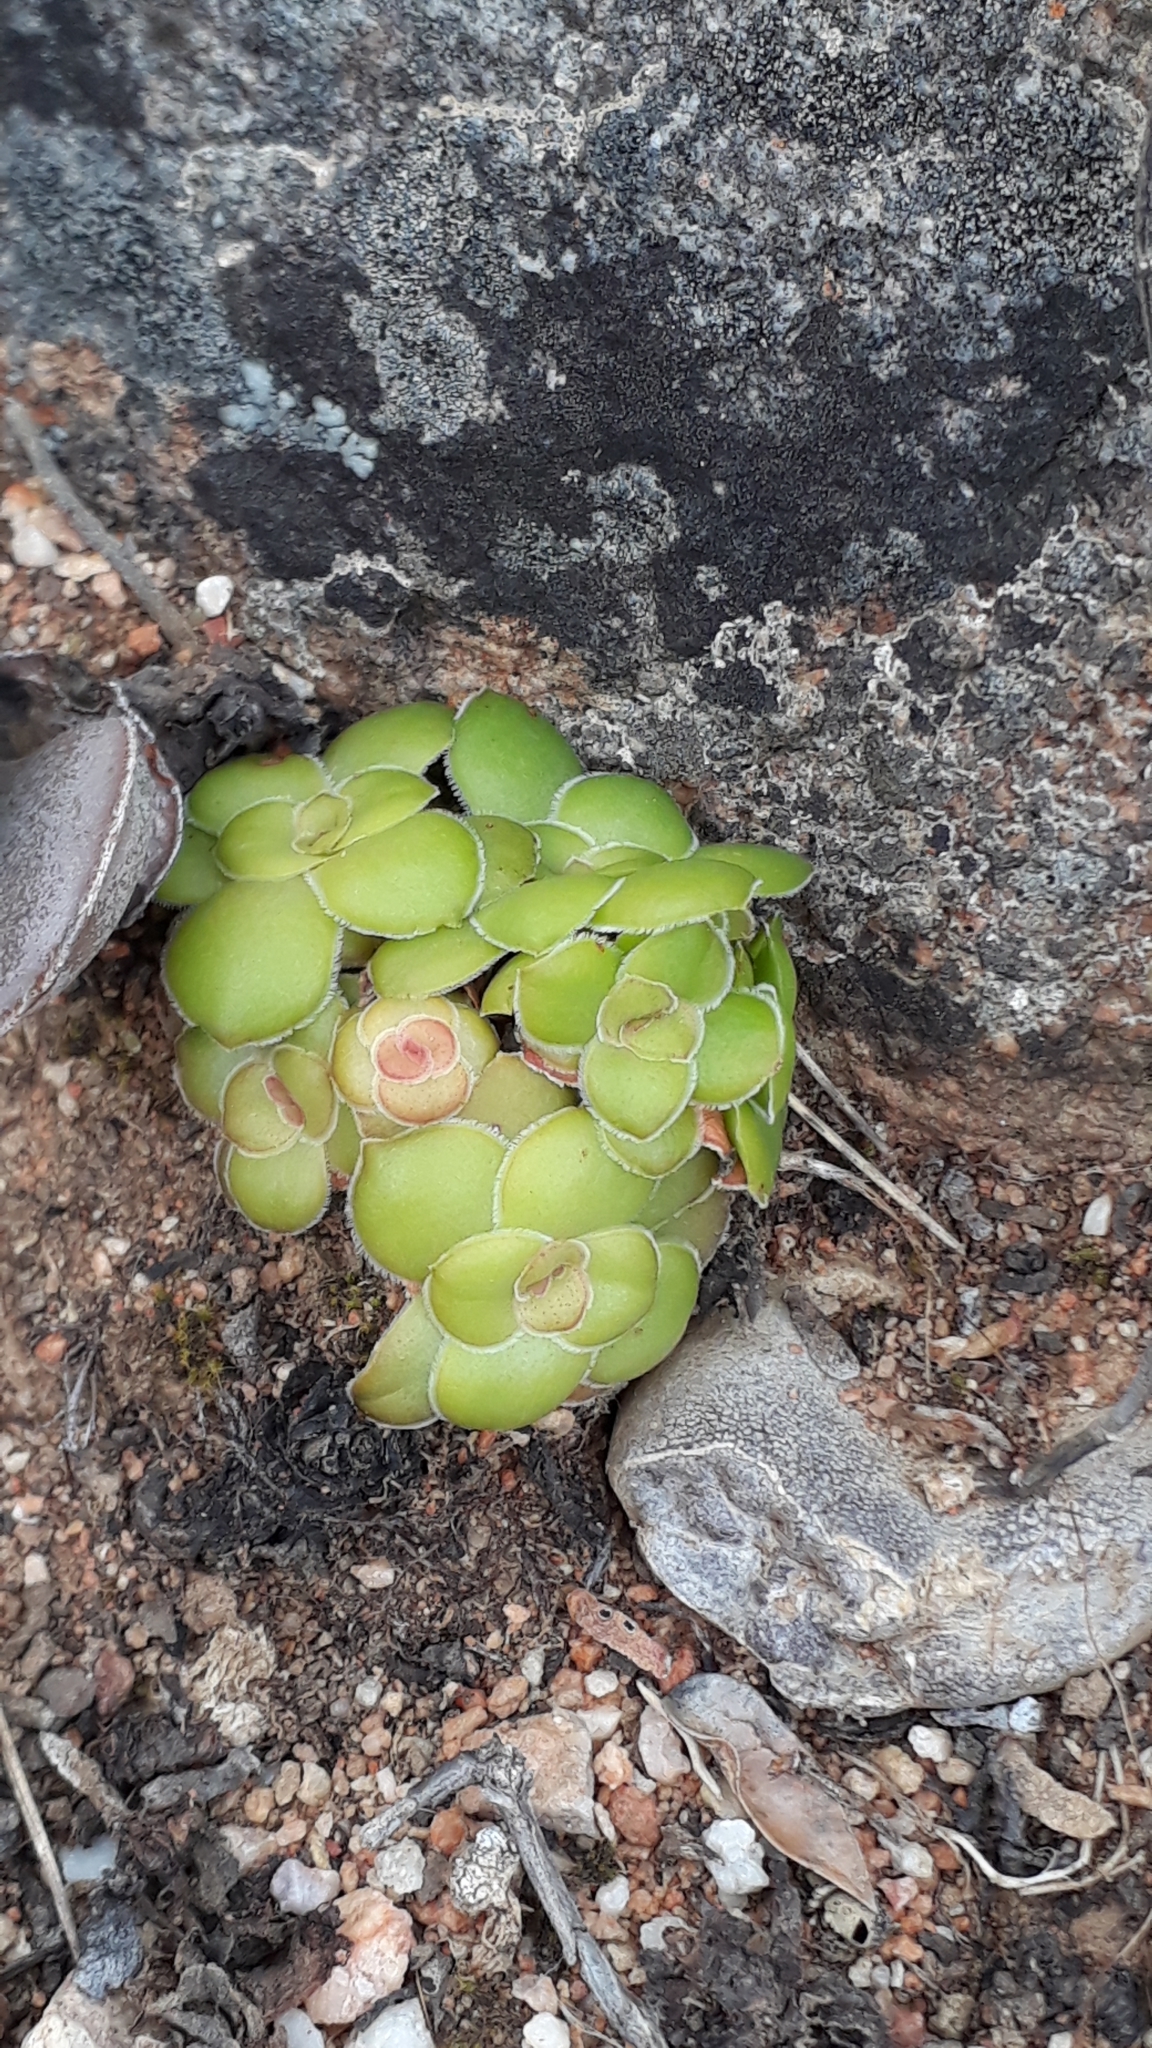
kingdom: Plantae
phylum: Tracheophyta
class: Magnoliopsida
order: Saxifragales
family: Crassulaceae
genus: Crassula
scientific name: Crassula orbicularis
